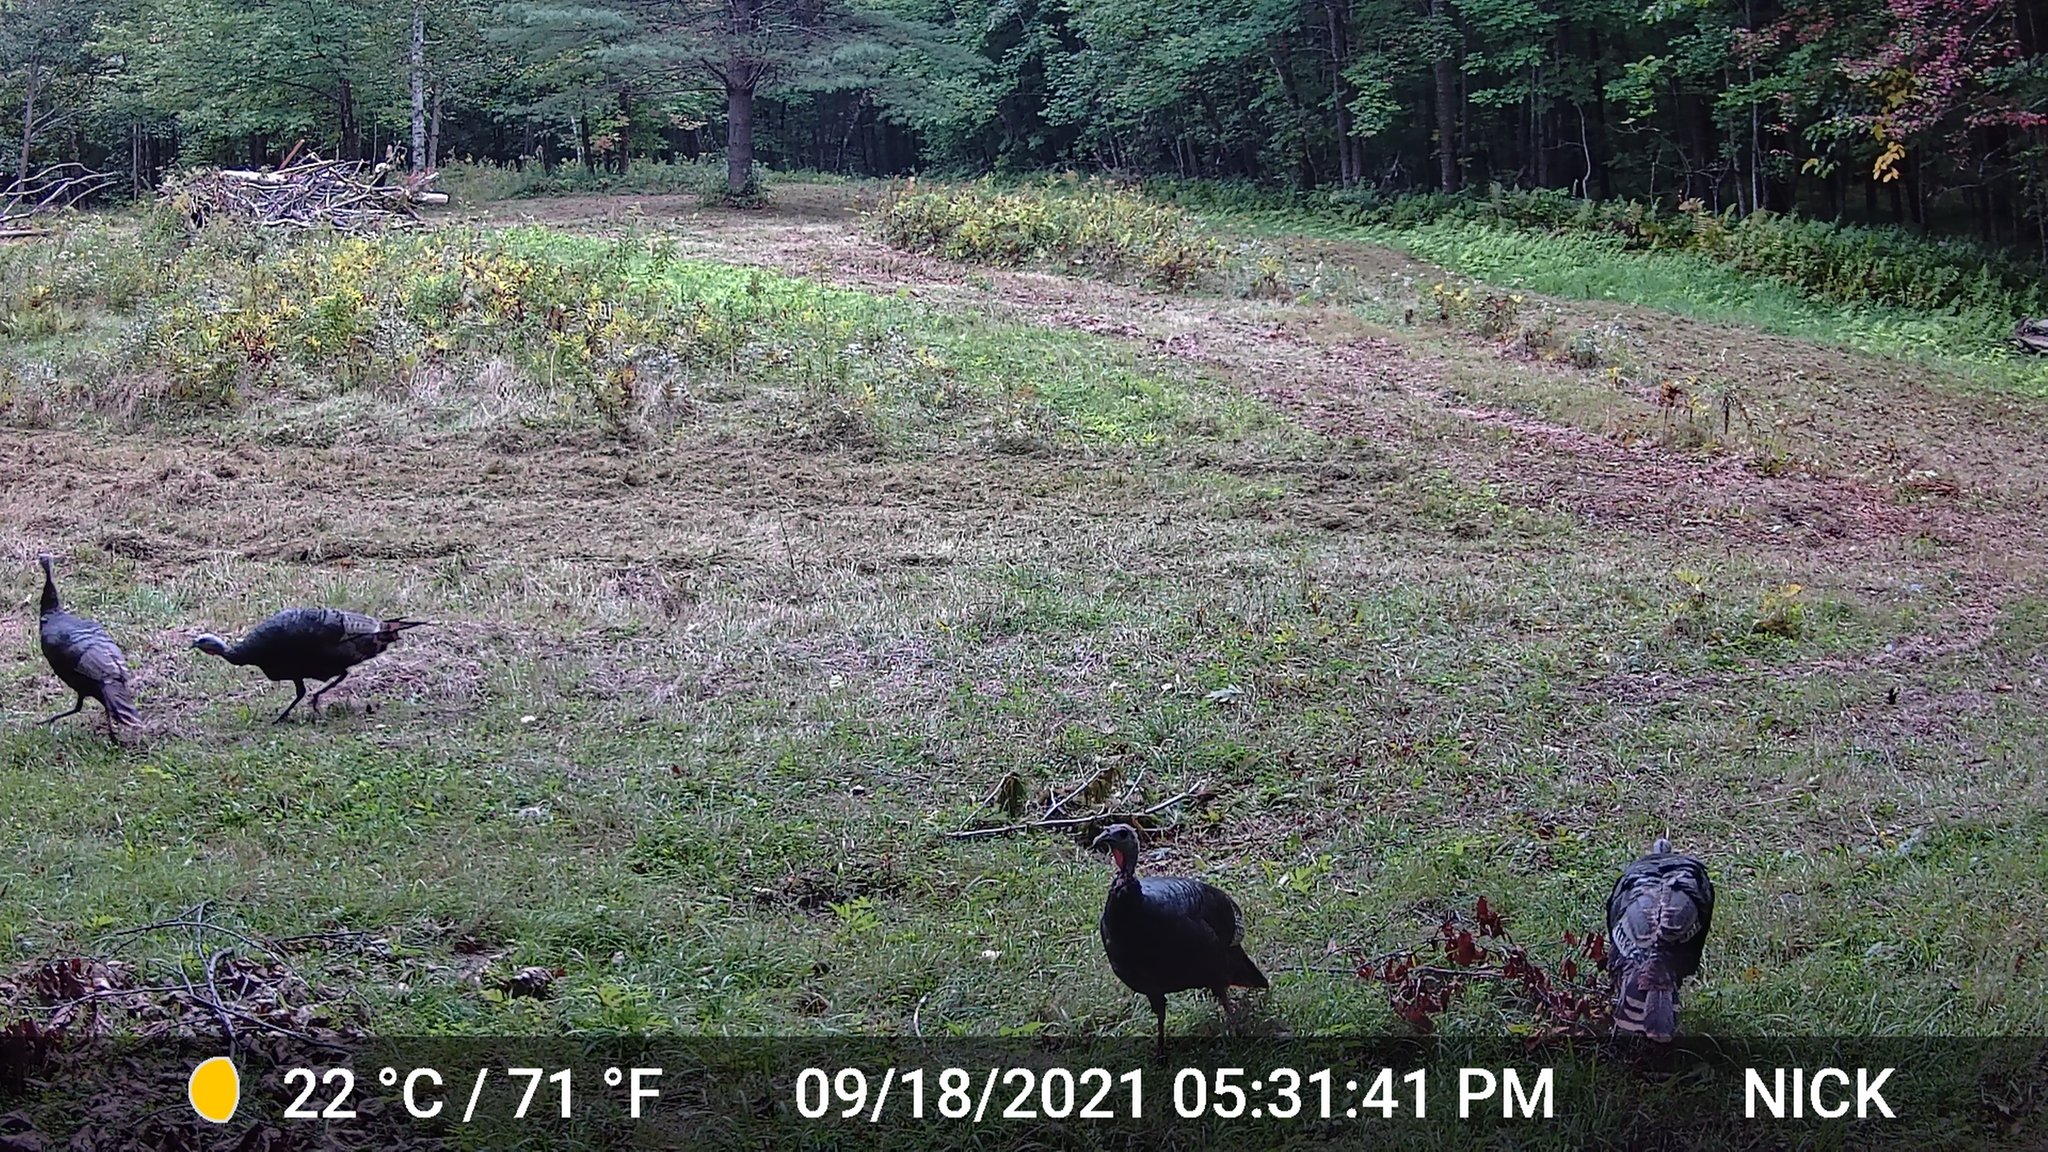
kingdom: Animalia
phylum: Chordata
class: Aves
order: Galliformes
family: Phasianidae
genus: Meleagris
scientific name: Meleagris gallopavo
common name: Wild turkey
